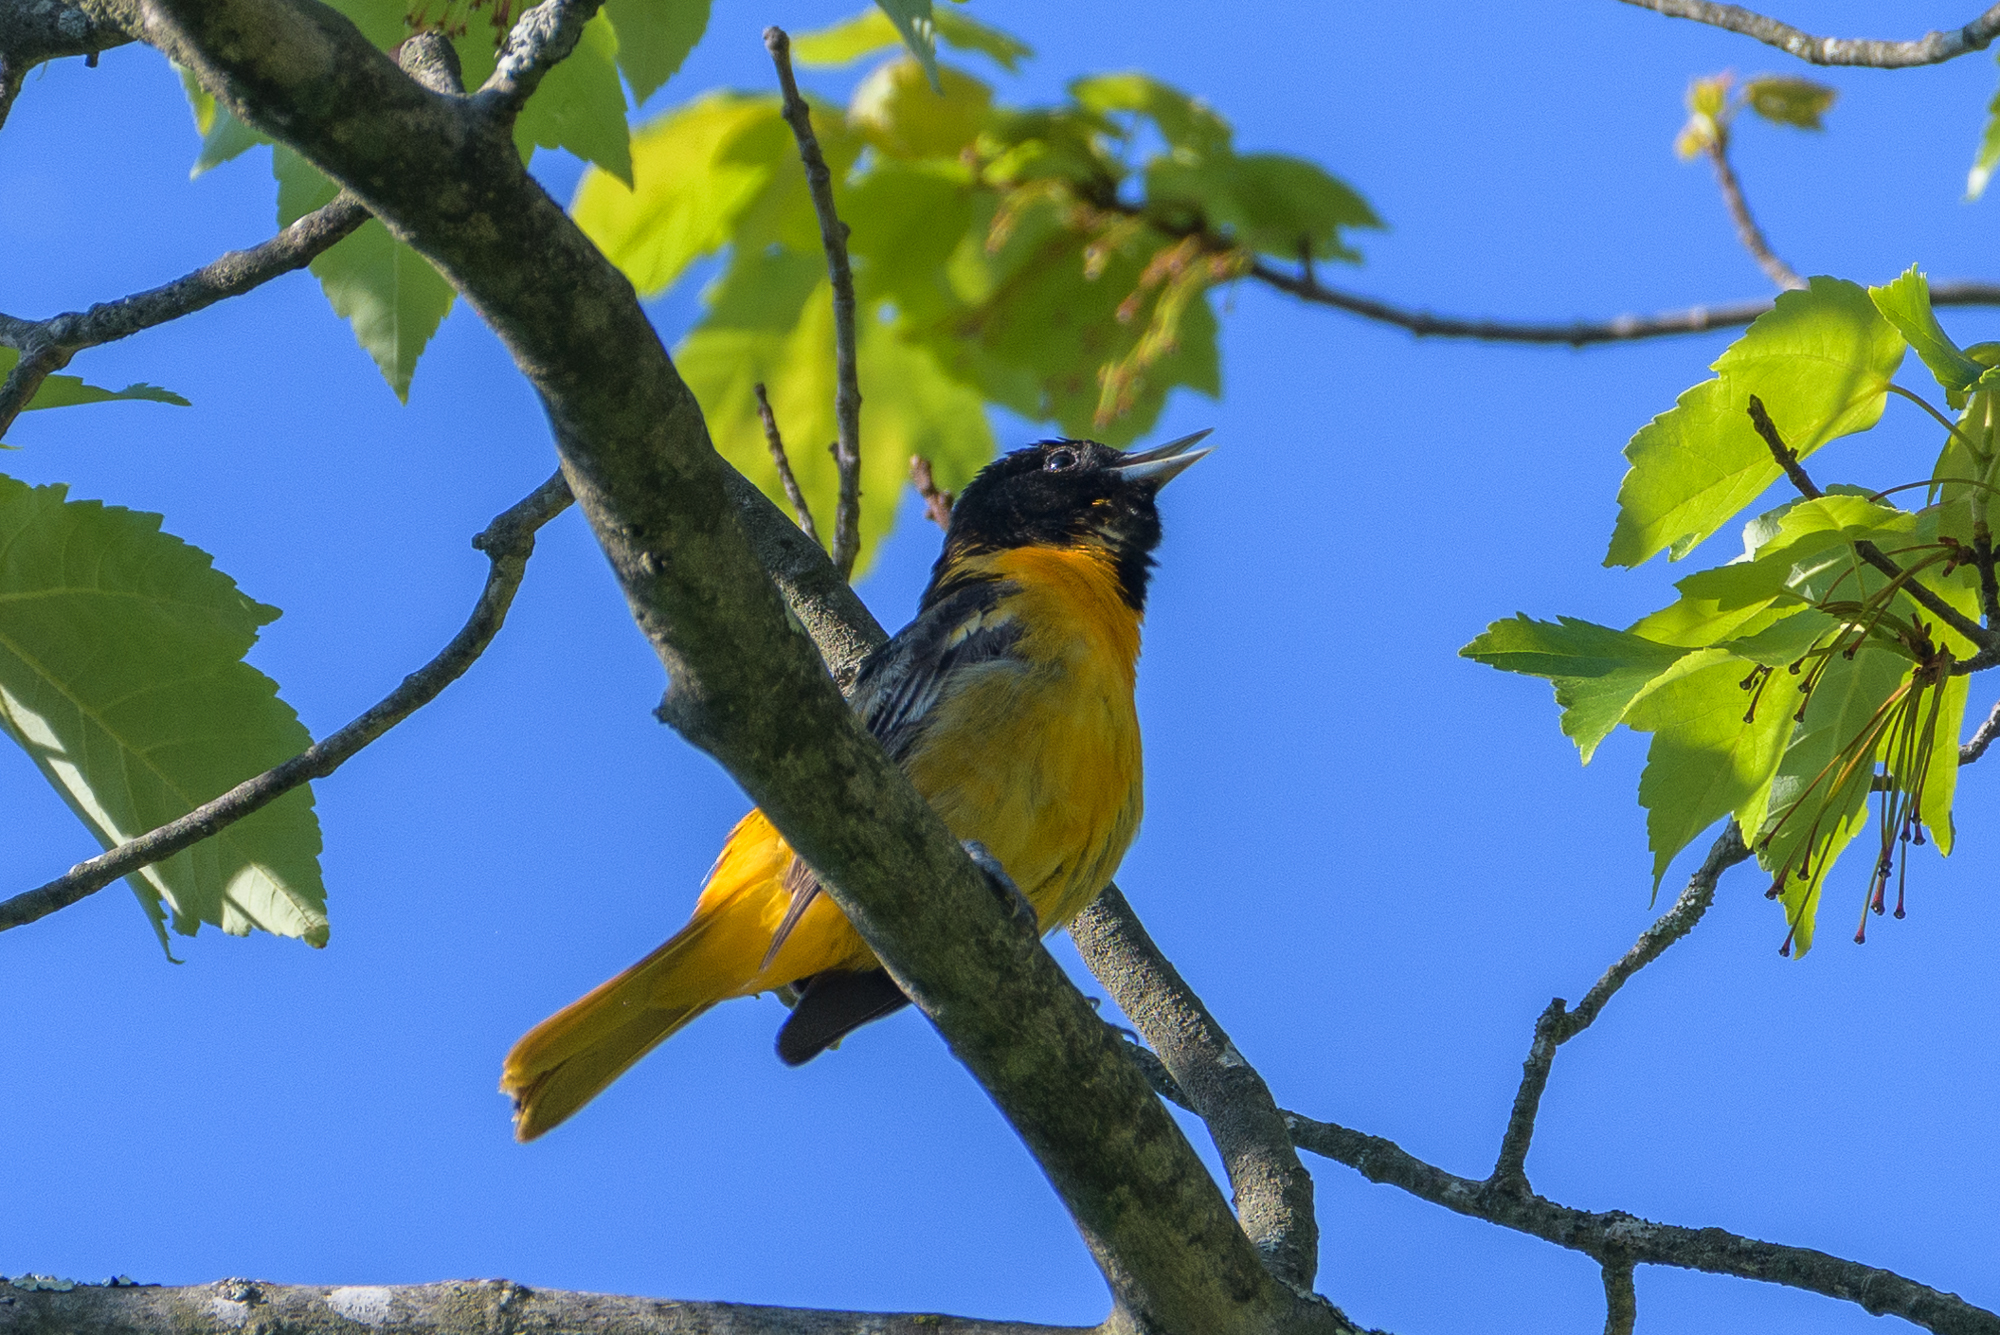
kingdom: Animalia
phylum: Chordata
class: Aves
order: Passeriformes
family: Icteridae
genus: Icterus
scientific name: Icterus galbula
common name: Baltimore oriole
